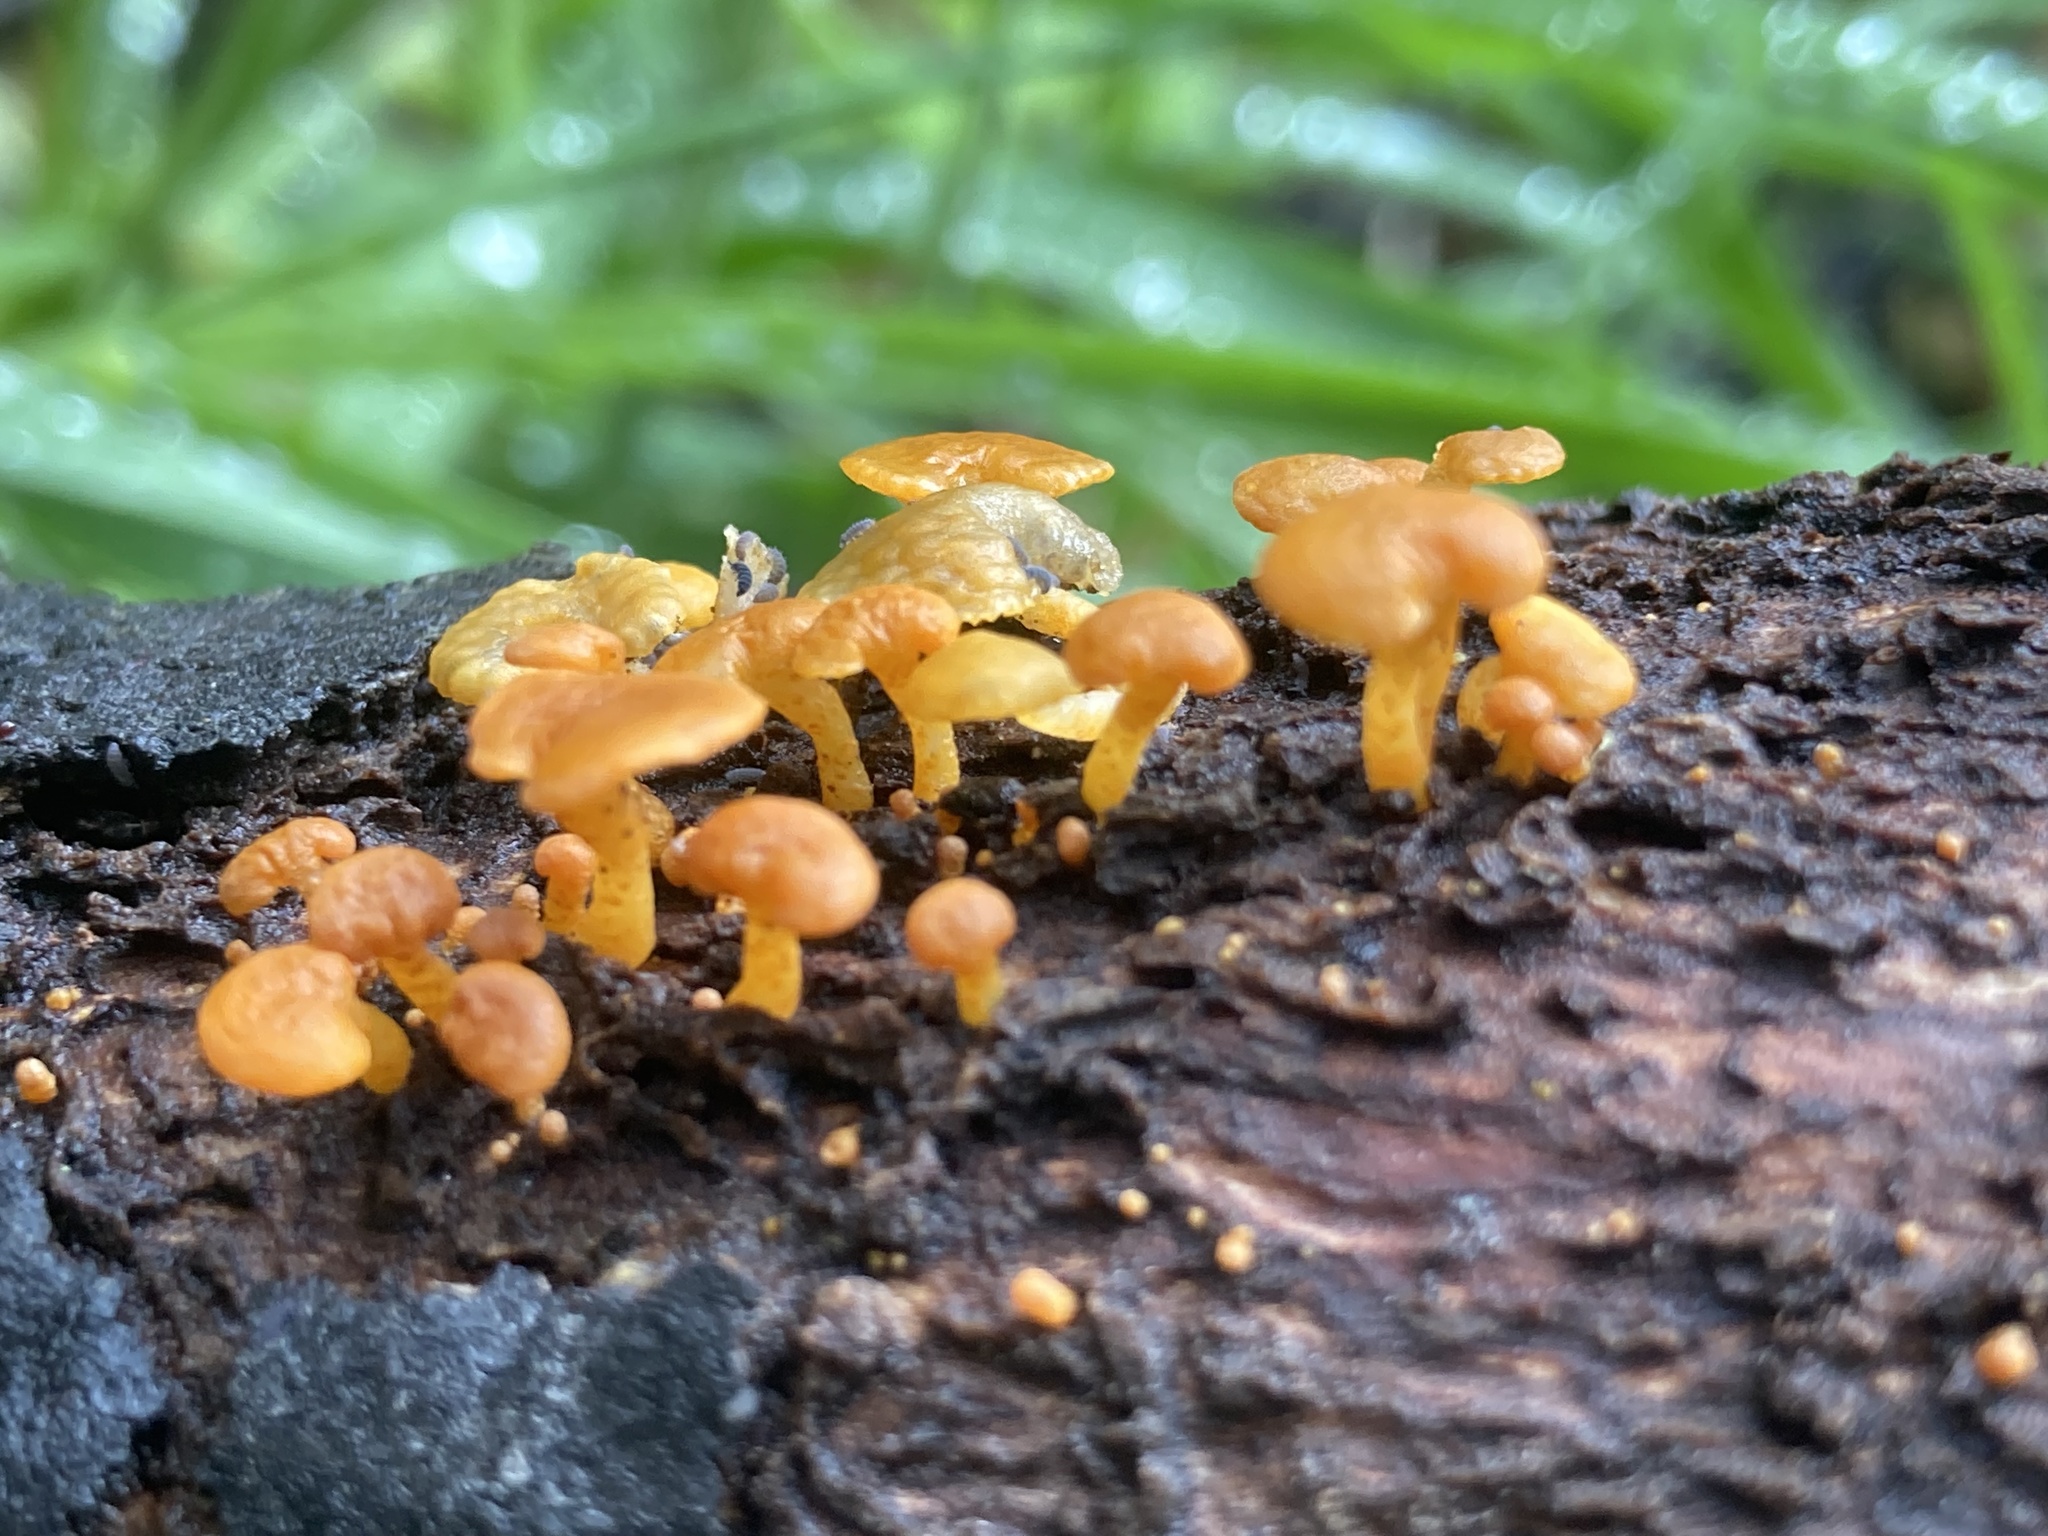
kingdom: Fungi
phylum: Basidiomycota
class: Agaricomycetes
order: Agaricales
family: Mycenaceae
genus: Favolaschia
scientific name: Favolaschia claudopus
